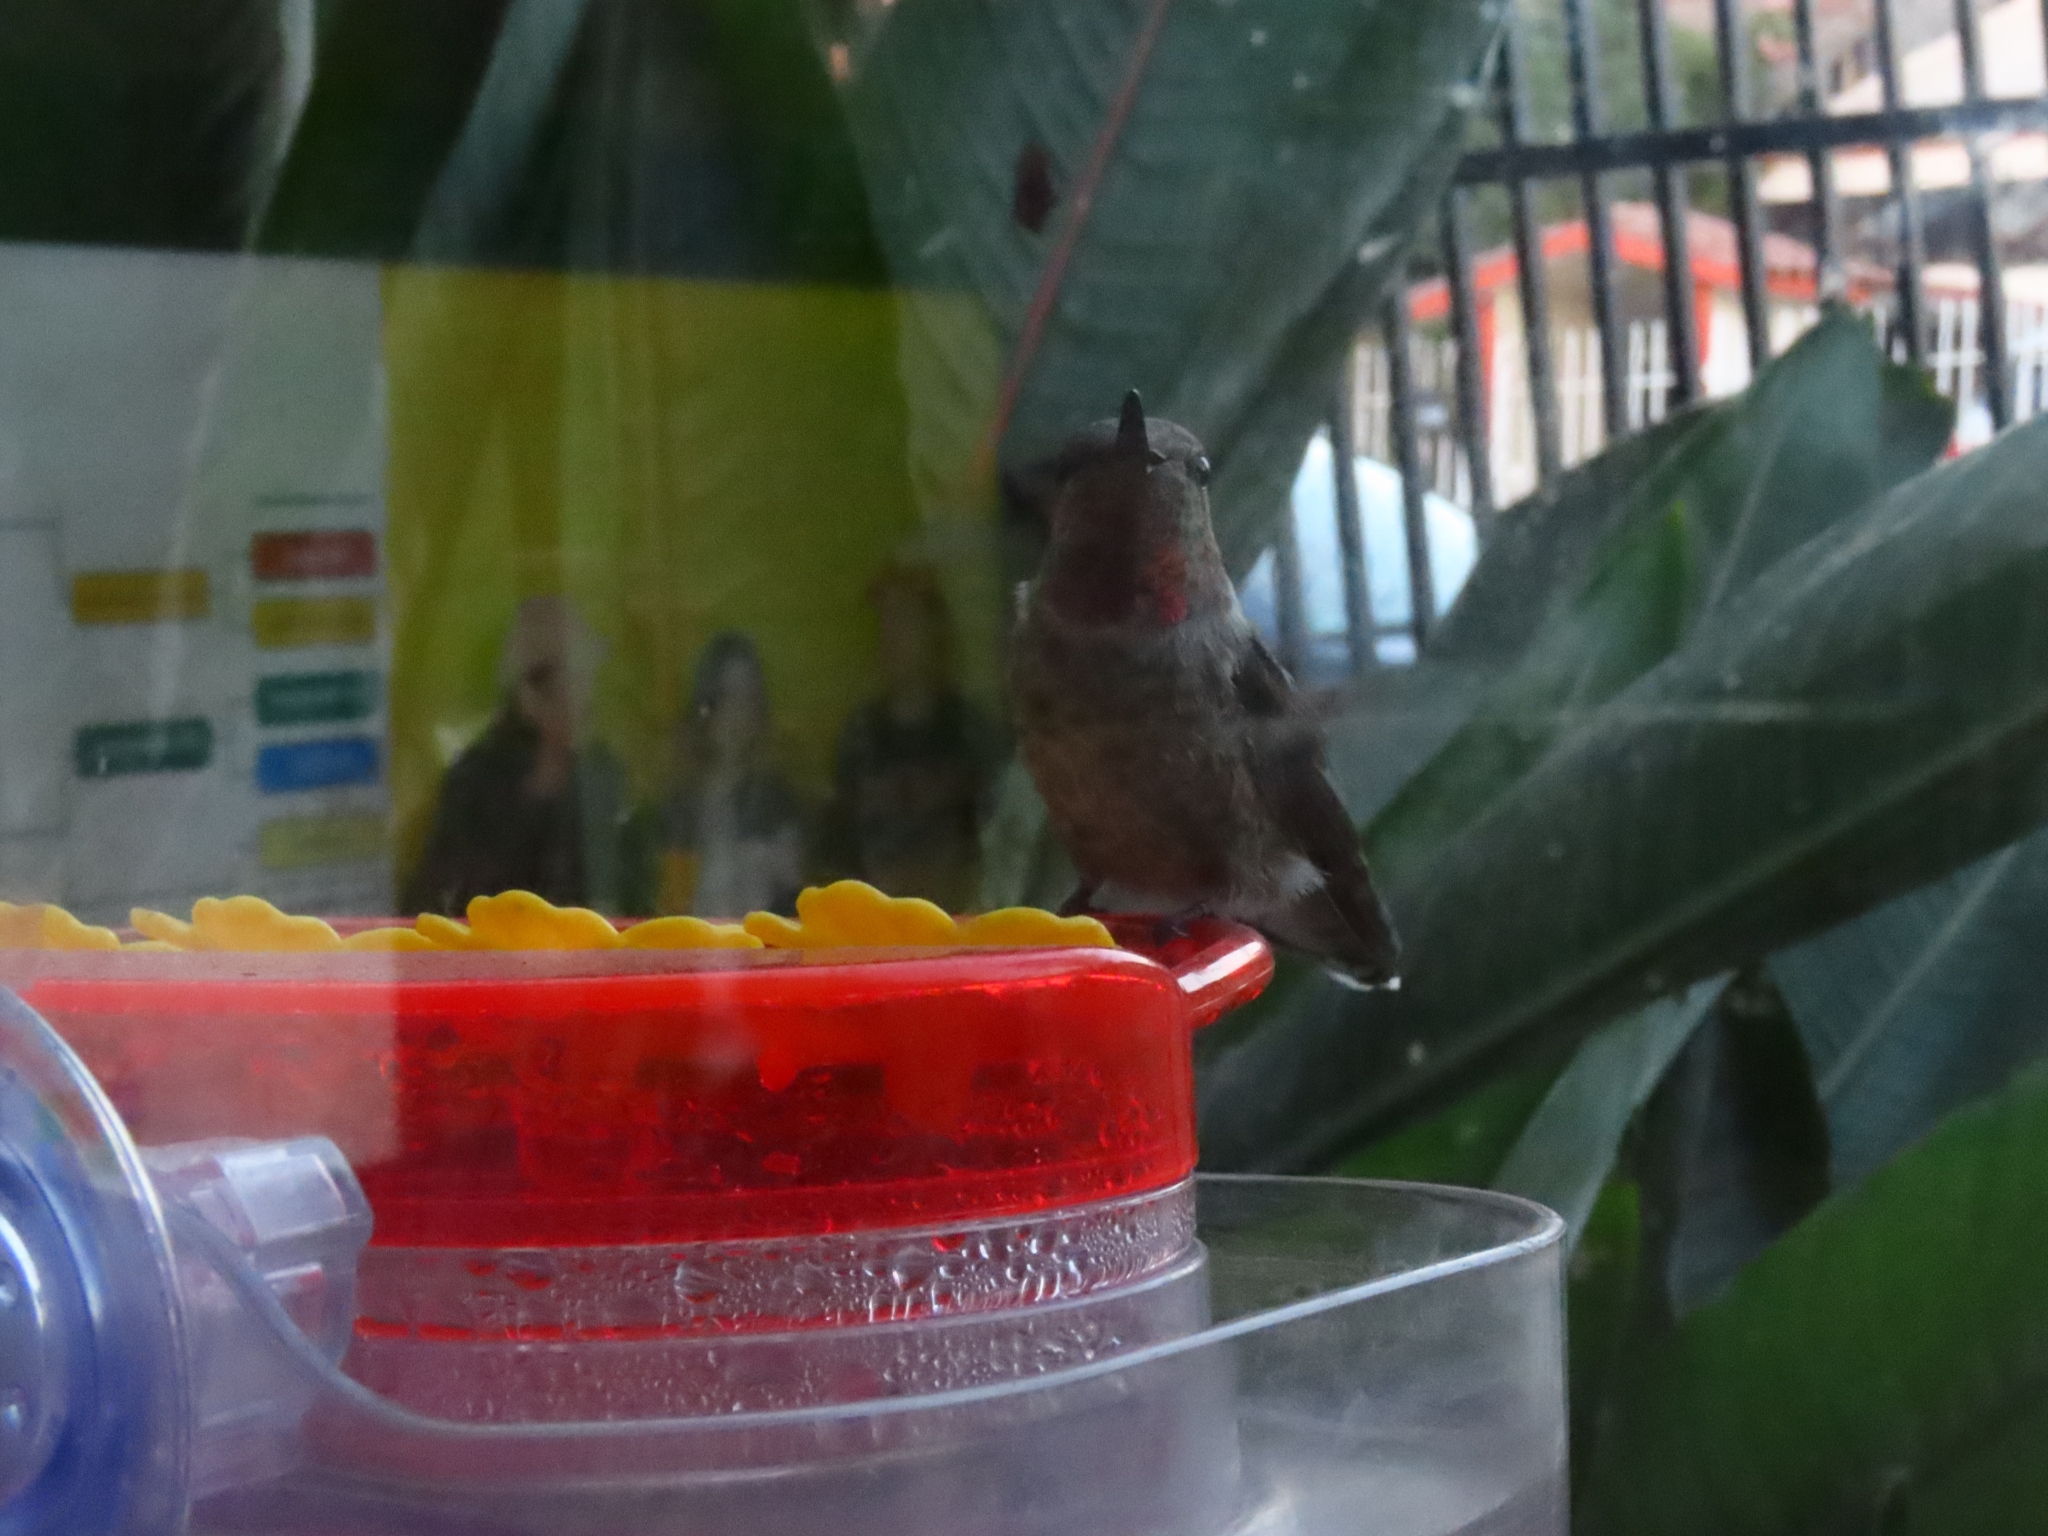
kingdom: Animalia
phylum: Chordata
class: Aves
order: Apodiformes
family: Trochilidae
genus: Calypte
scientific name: Calypte anna
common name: Anna's hummingbird
